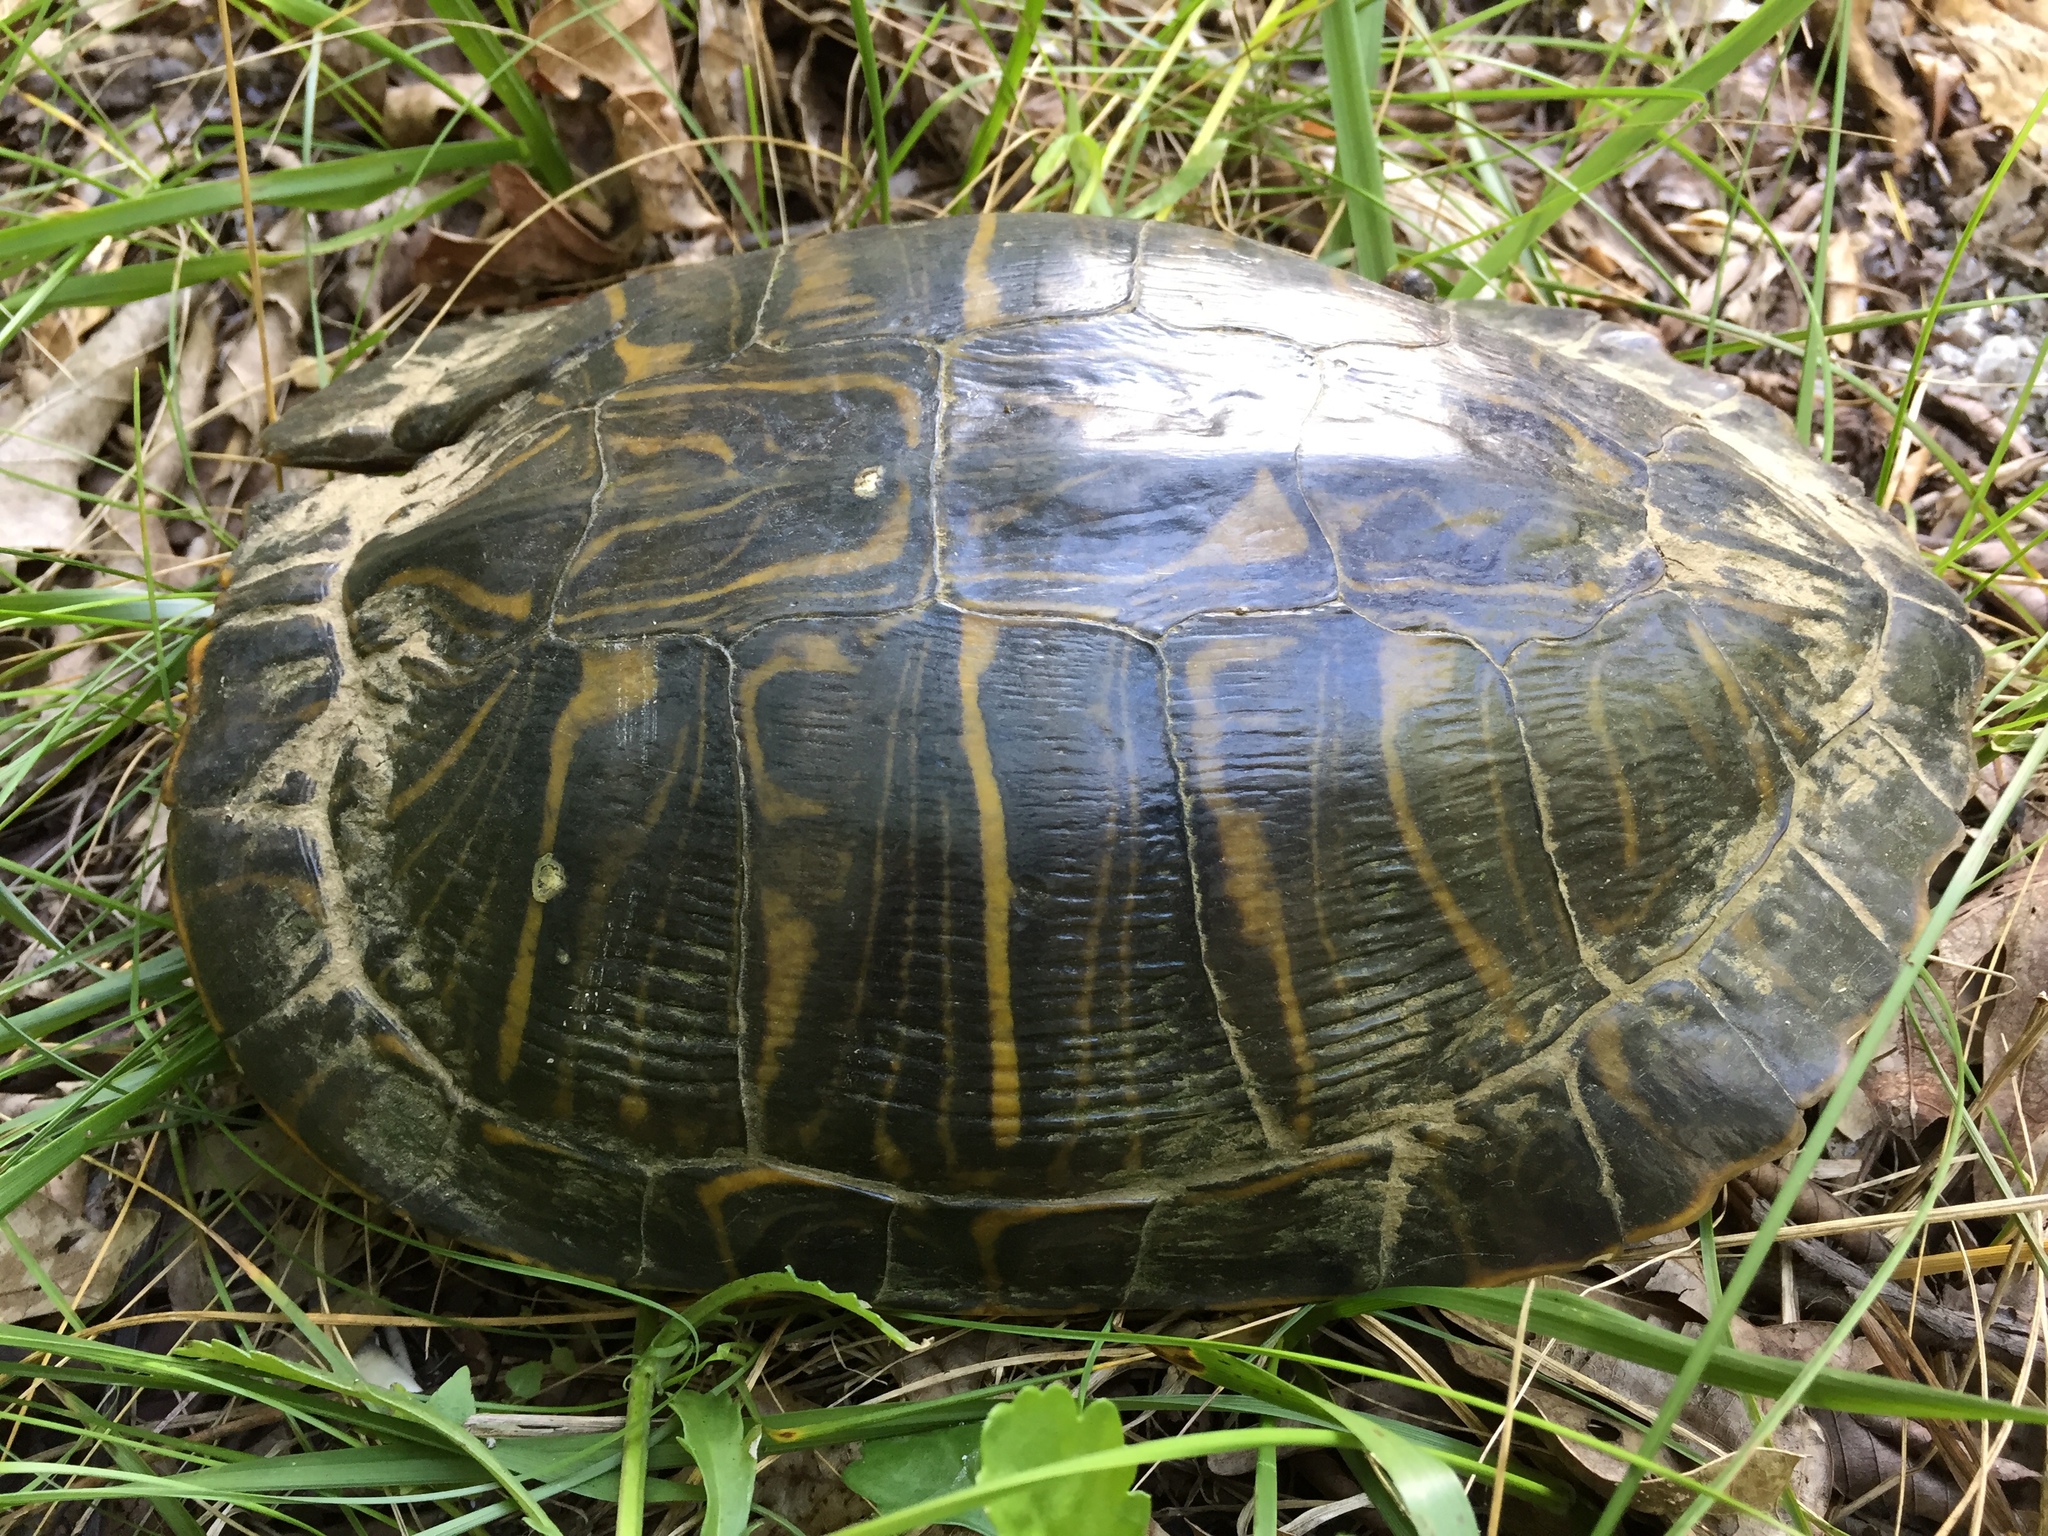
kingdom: Animalia
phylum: Chordata
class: Testudines
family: Emydidae
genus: Trachemys
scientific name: Trachemys scripta
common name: Slider
